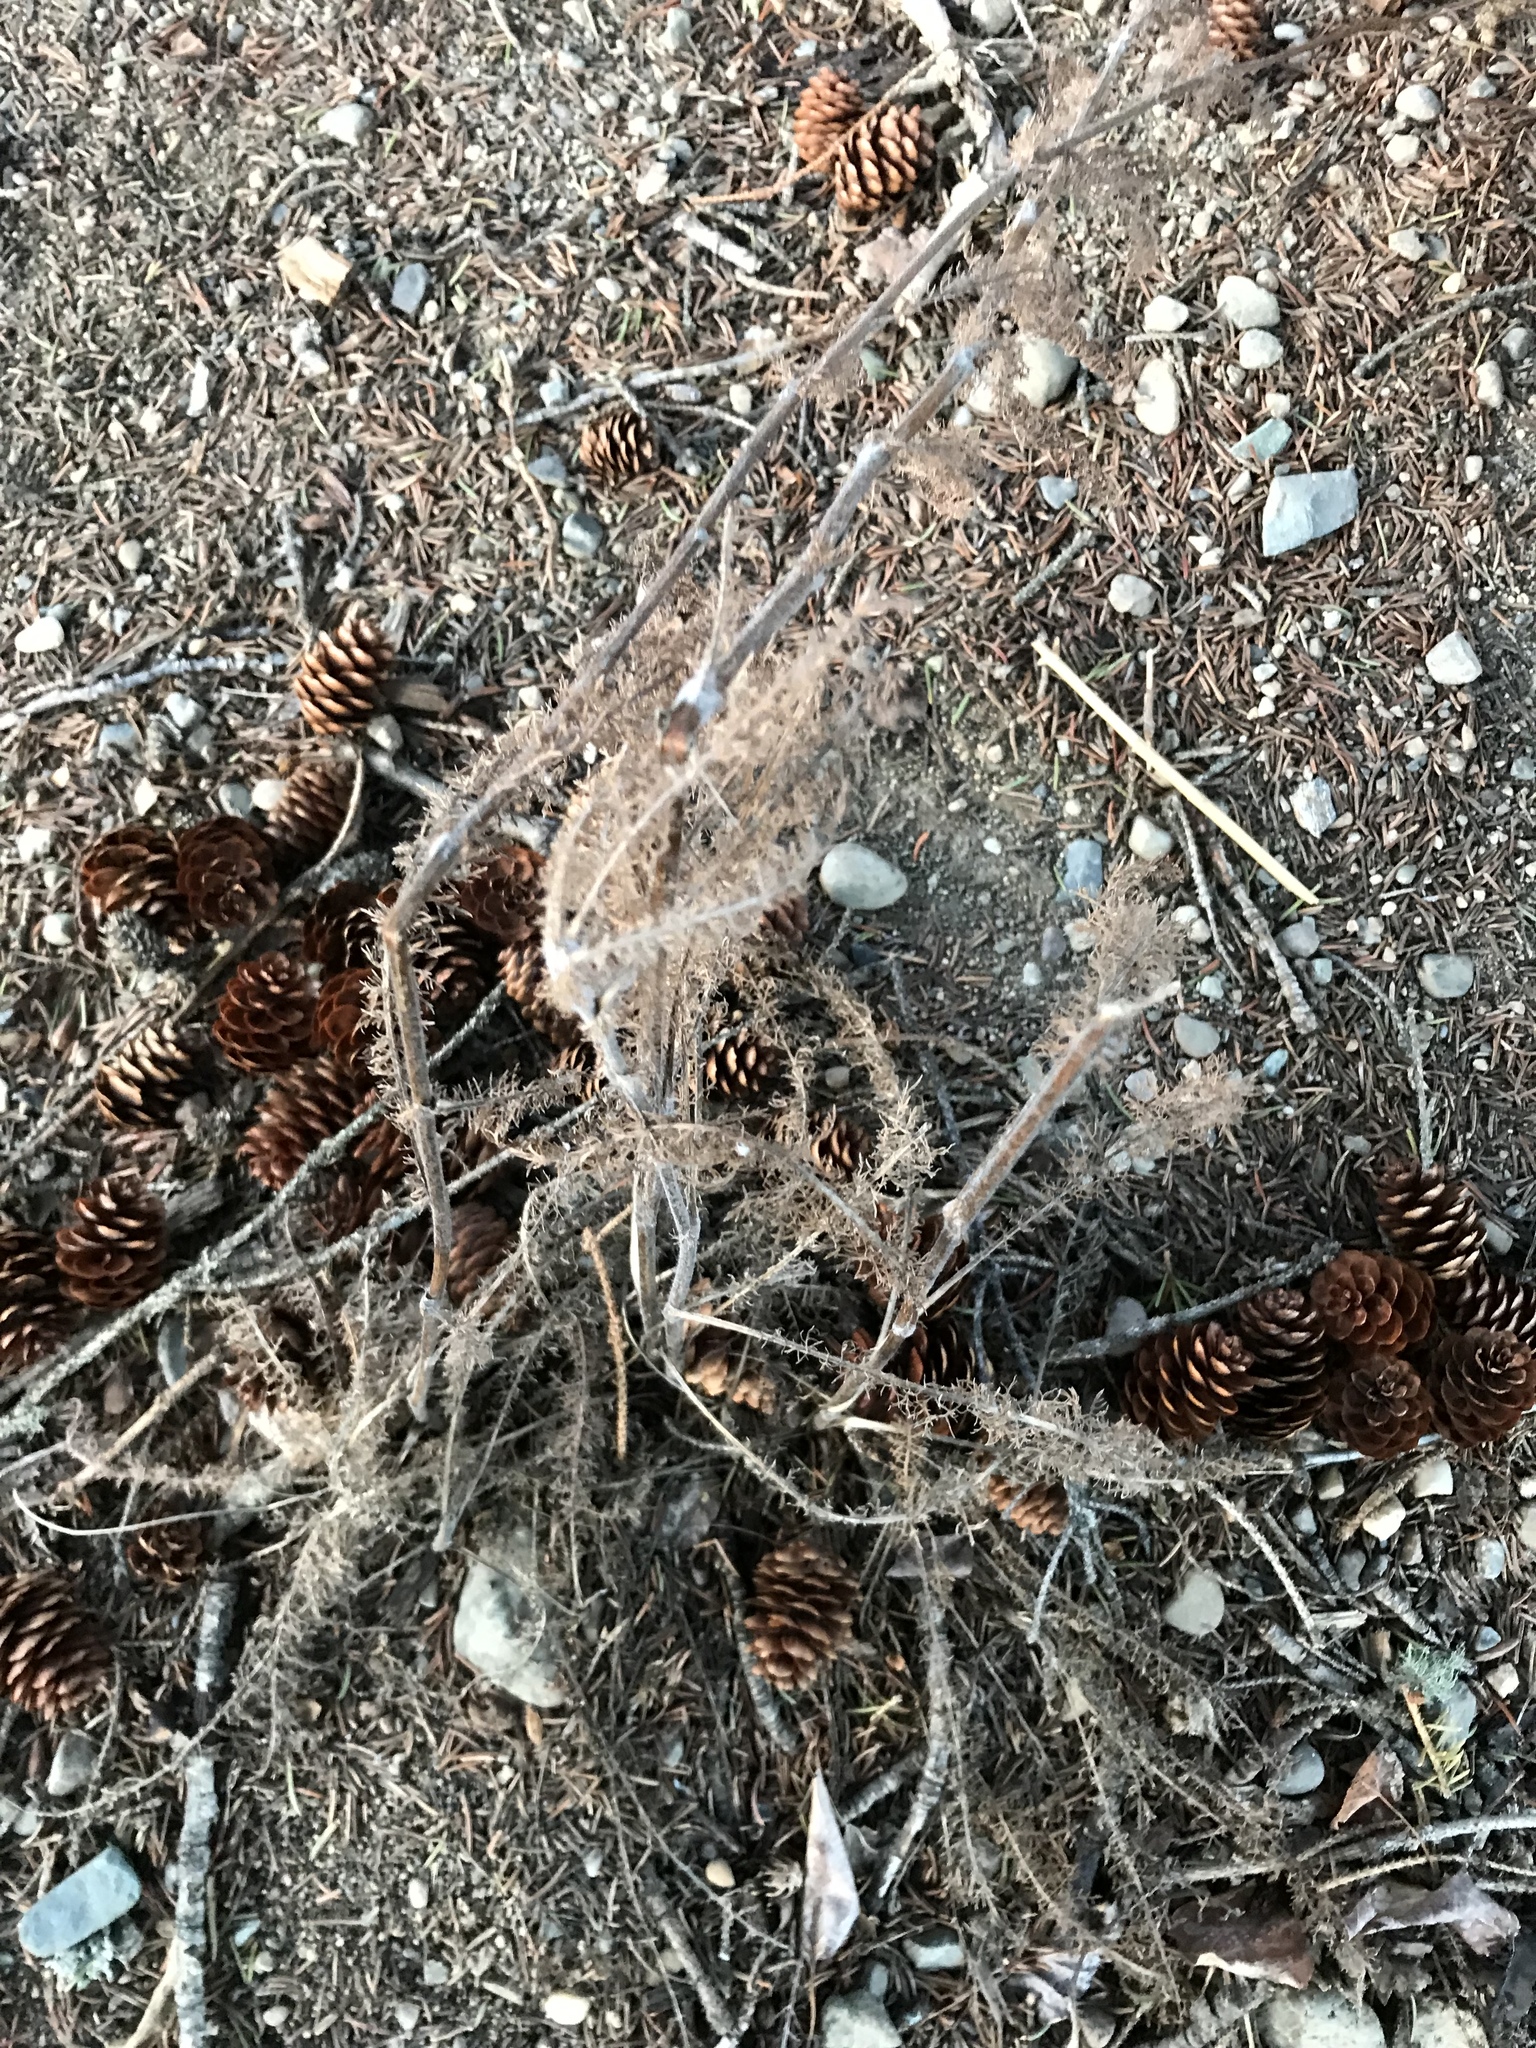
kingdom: Plantae
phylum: Tracheophyta
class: Magnoliopsida
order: Asterales
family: Asteraceae
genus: Achillea
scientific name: Achillea millefolium
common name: Yarrow
